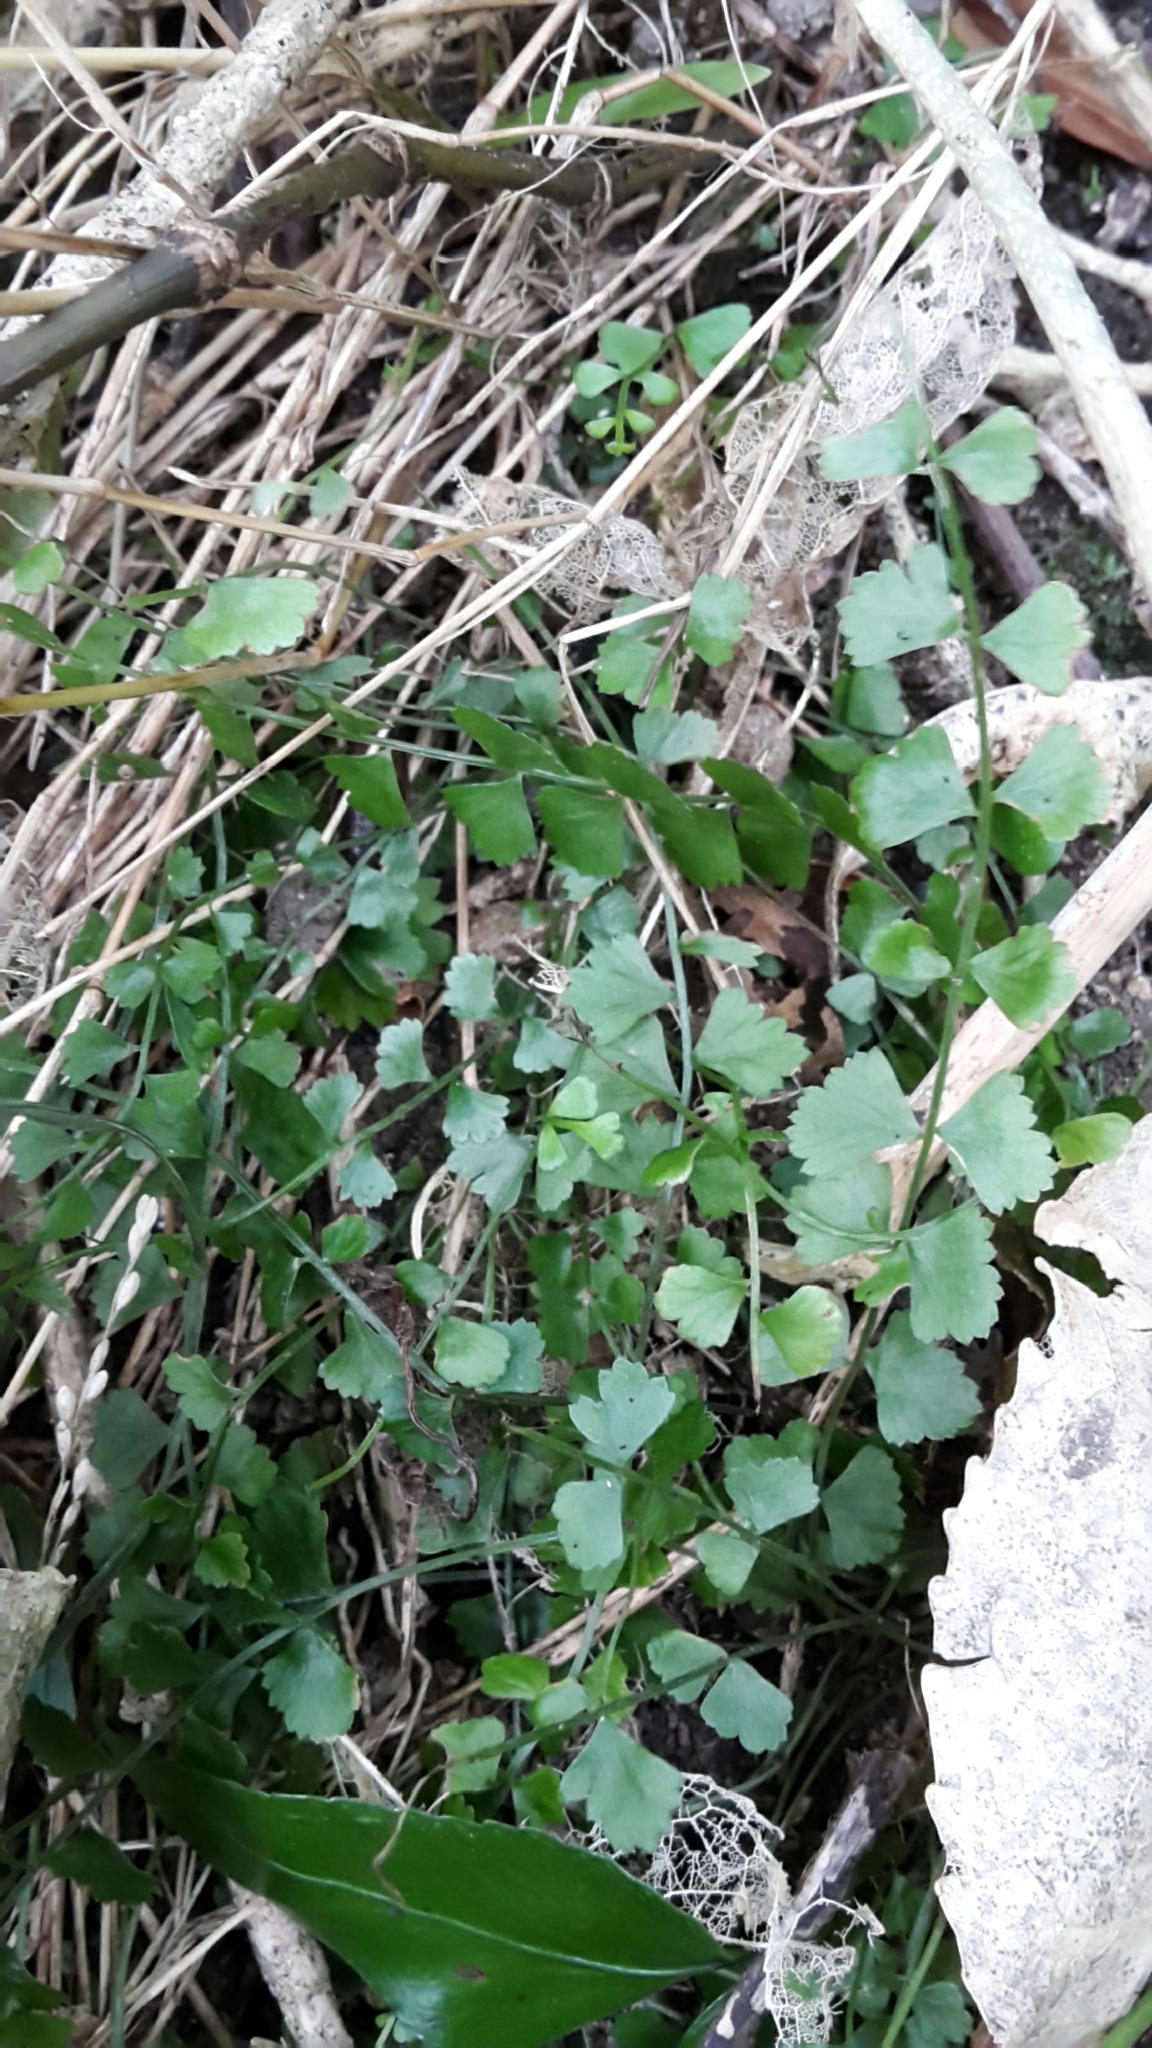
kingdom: Plantae
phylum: Tracheophyta
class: Polypodiopsida
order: Polypodiales
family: Aspleniaceae
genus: Asplenium
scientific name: Asplenium flabellifolium
